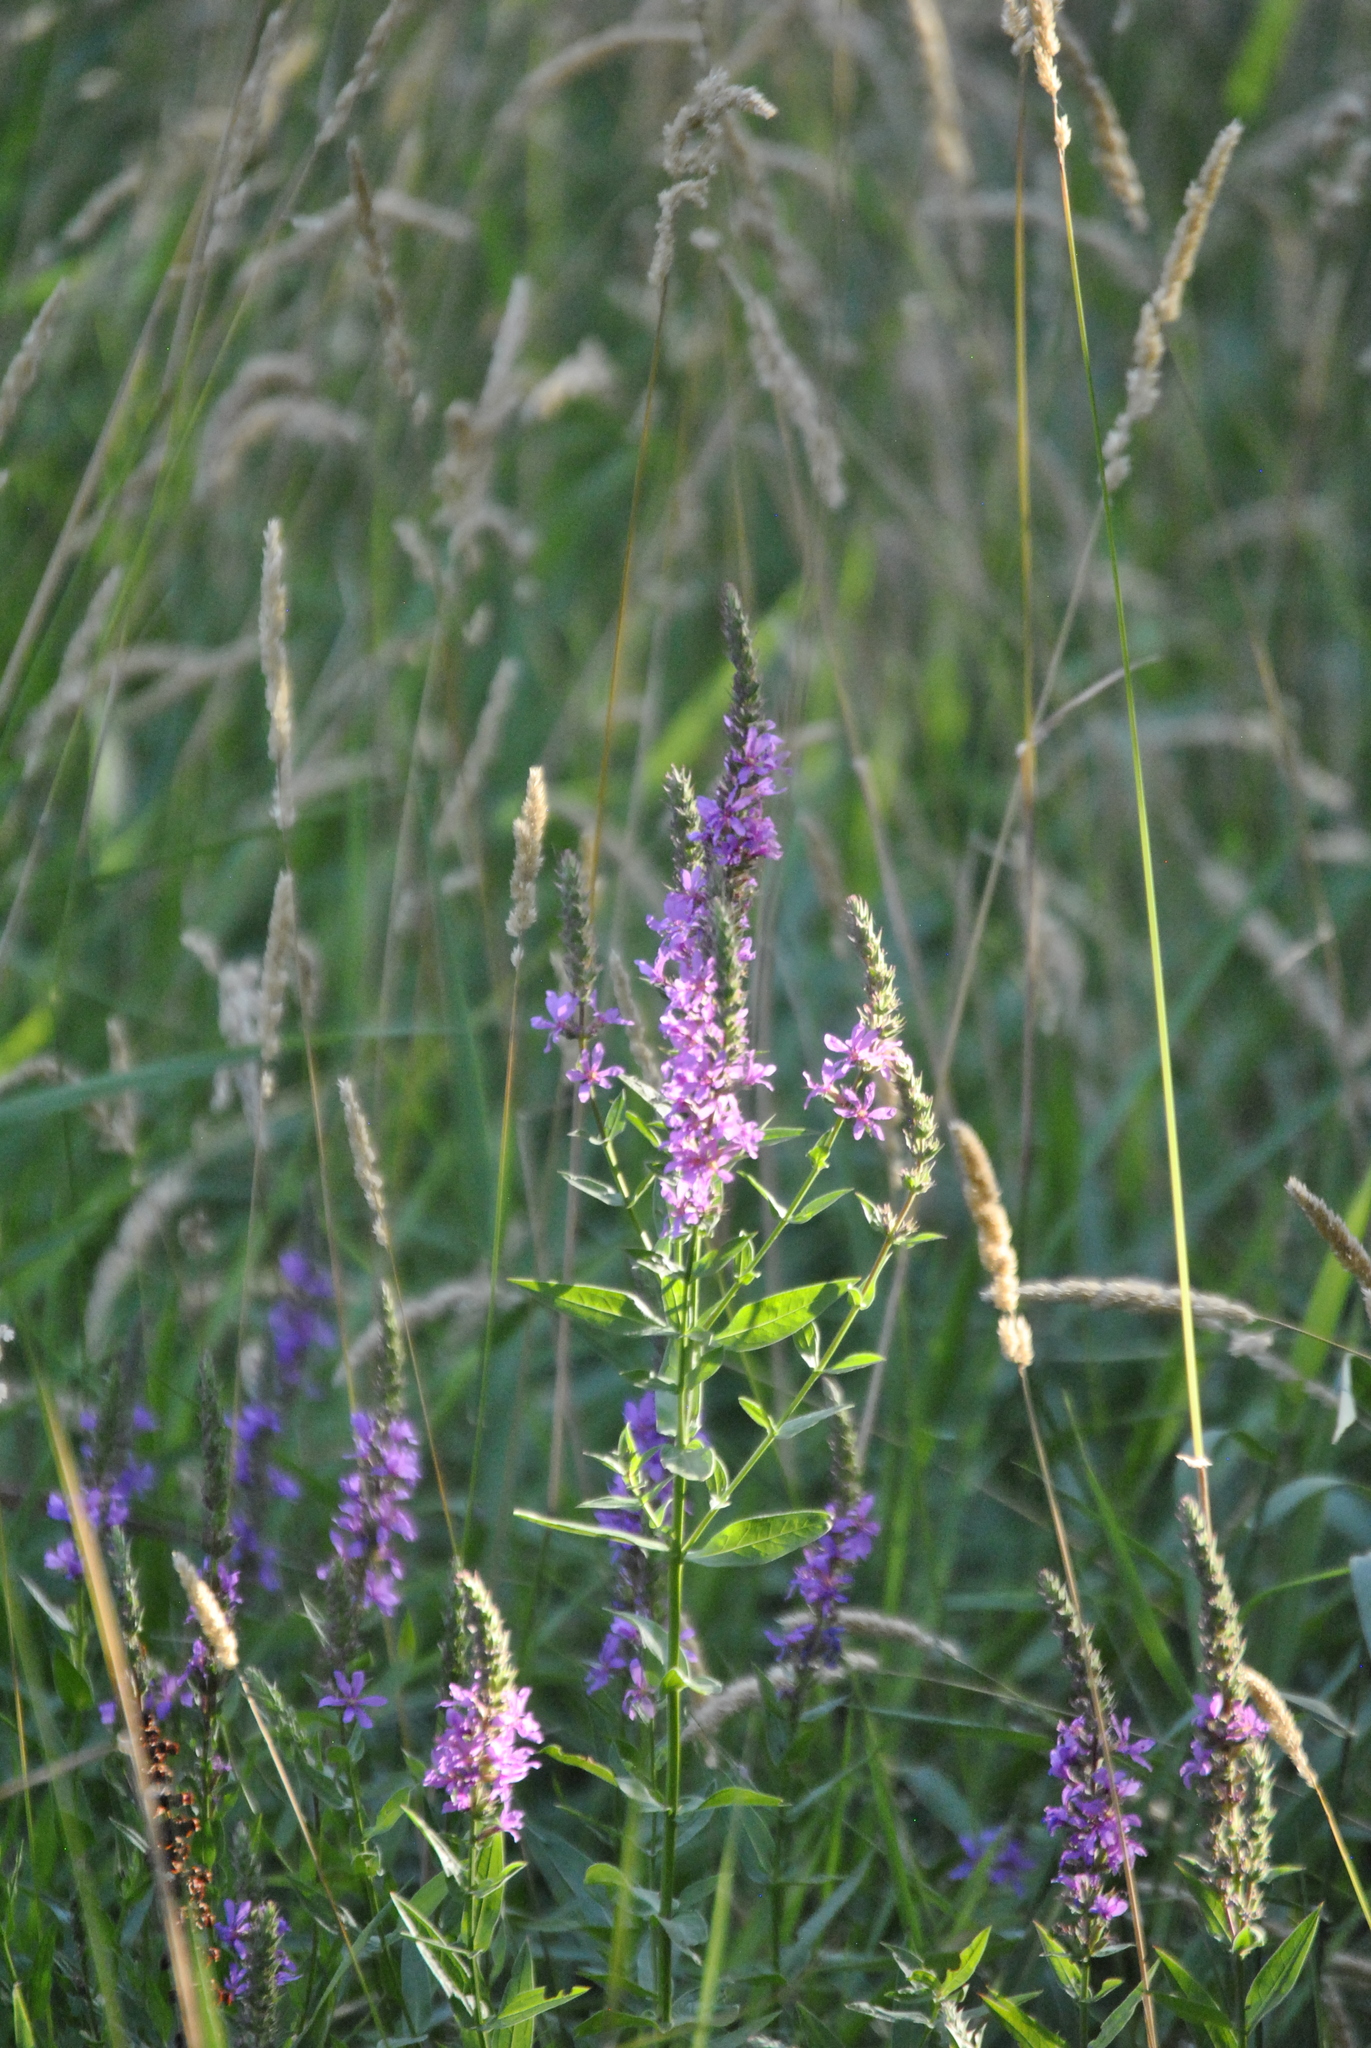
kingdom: Plantae
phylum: Tracheophyta
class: Magnoliopsida
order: Myrtales
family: Lythraceae
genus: Lythrum
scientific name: Lythrum salicaria
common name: Purple loosestrife
